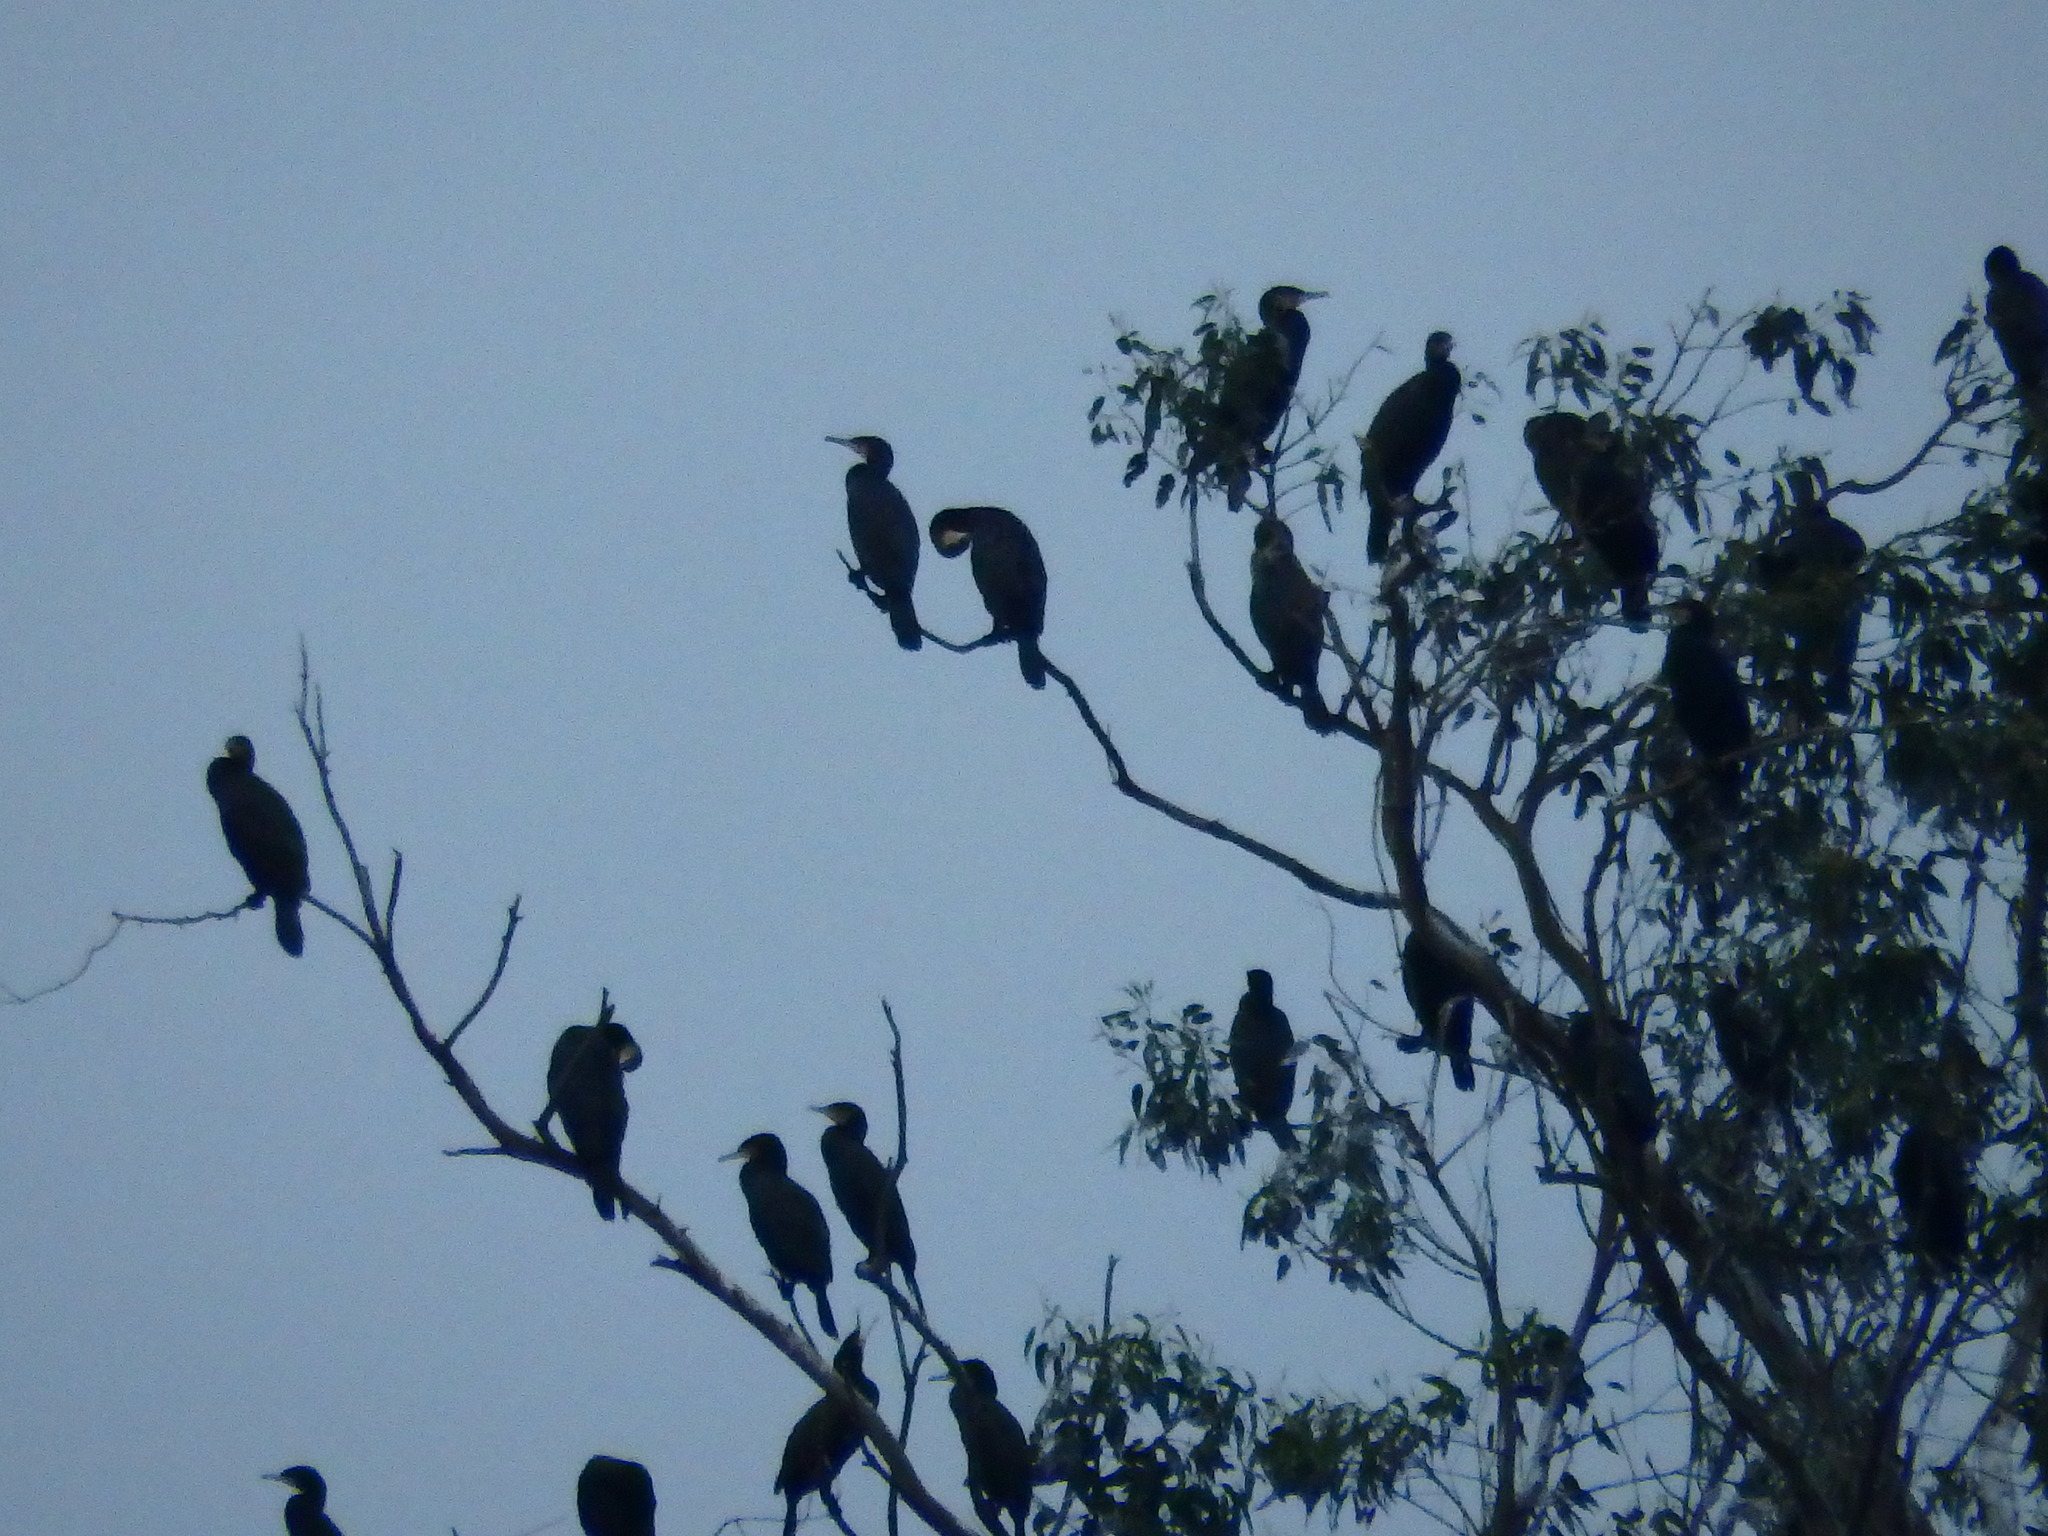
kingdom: Animalia
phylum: Chordata
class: Aves
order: Suliformes
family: Phalacrocoracidae
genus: Phalacrocorax
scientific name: Phalacrocorax carbo
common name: Great cormorant
